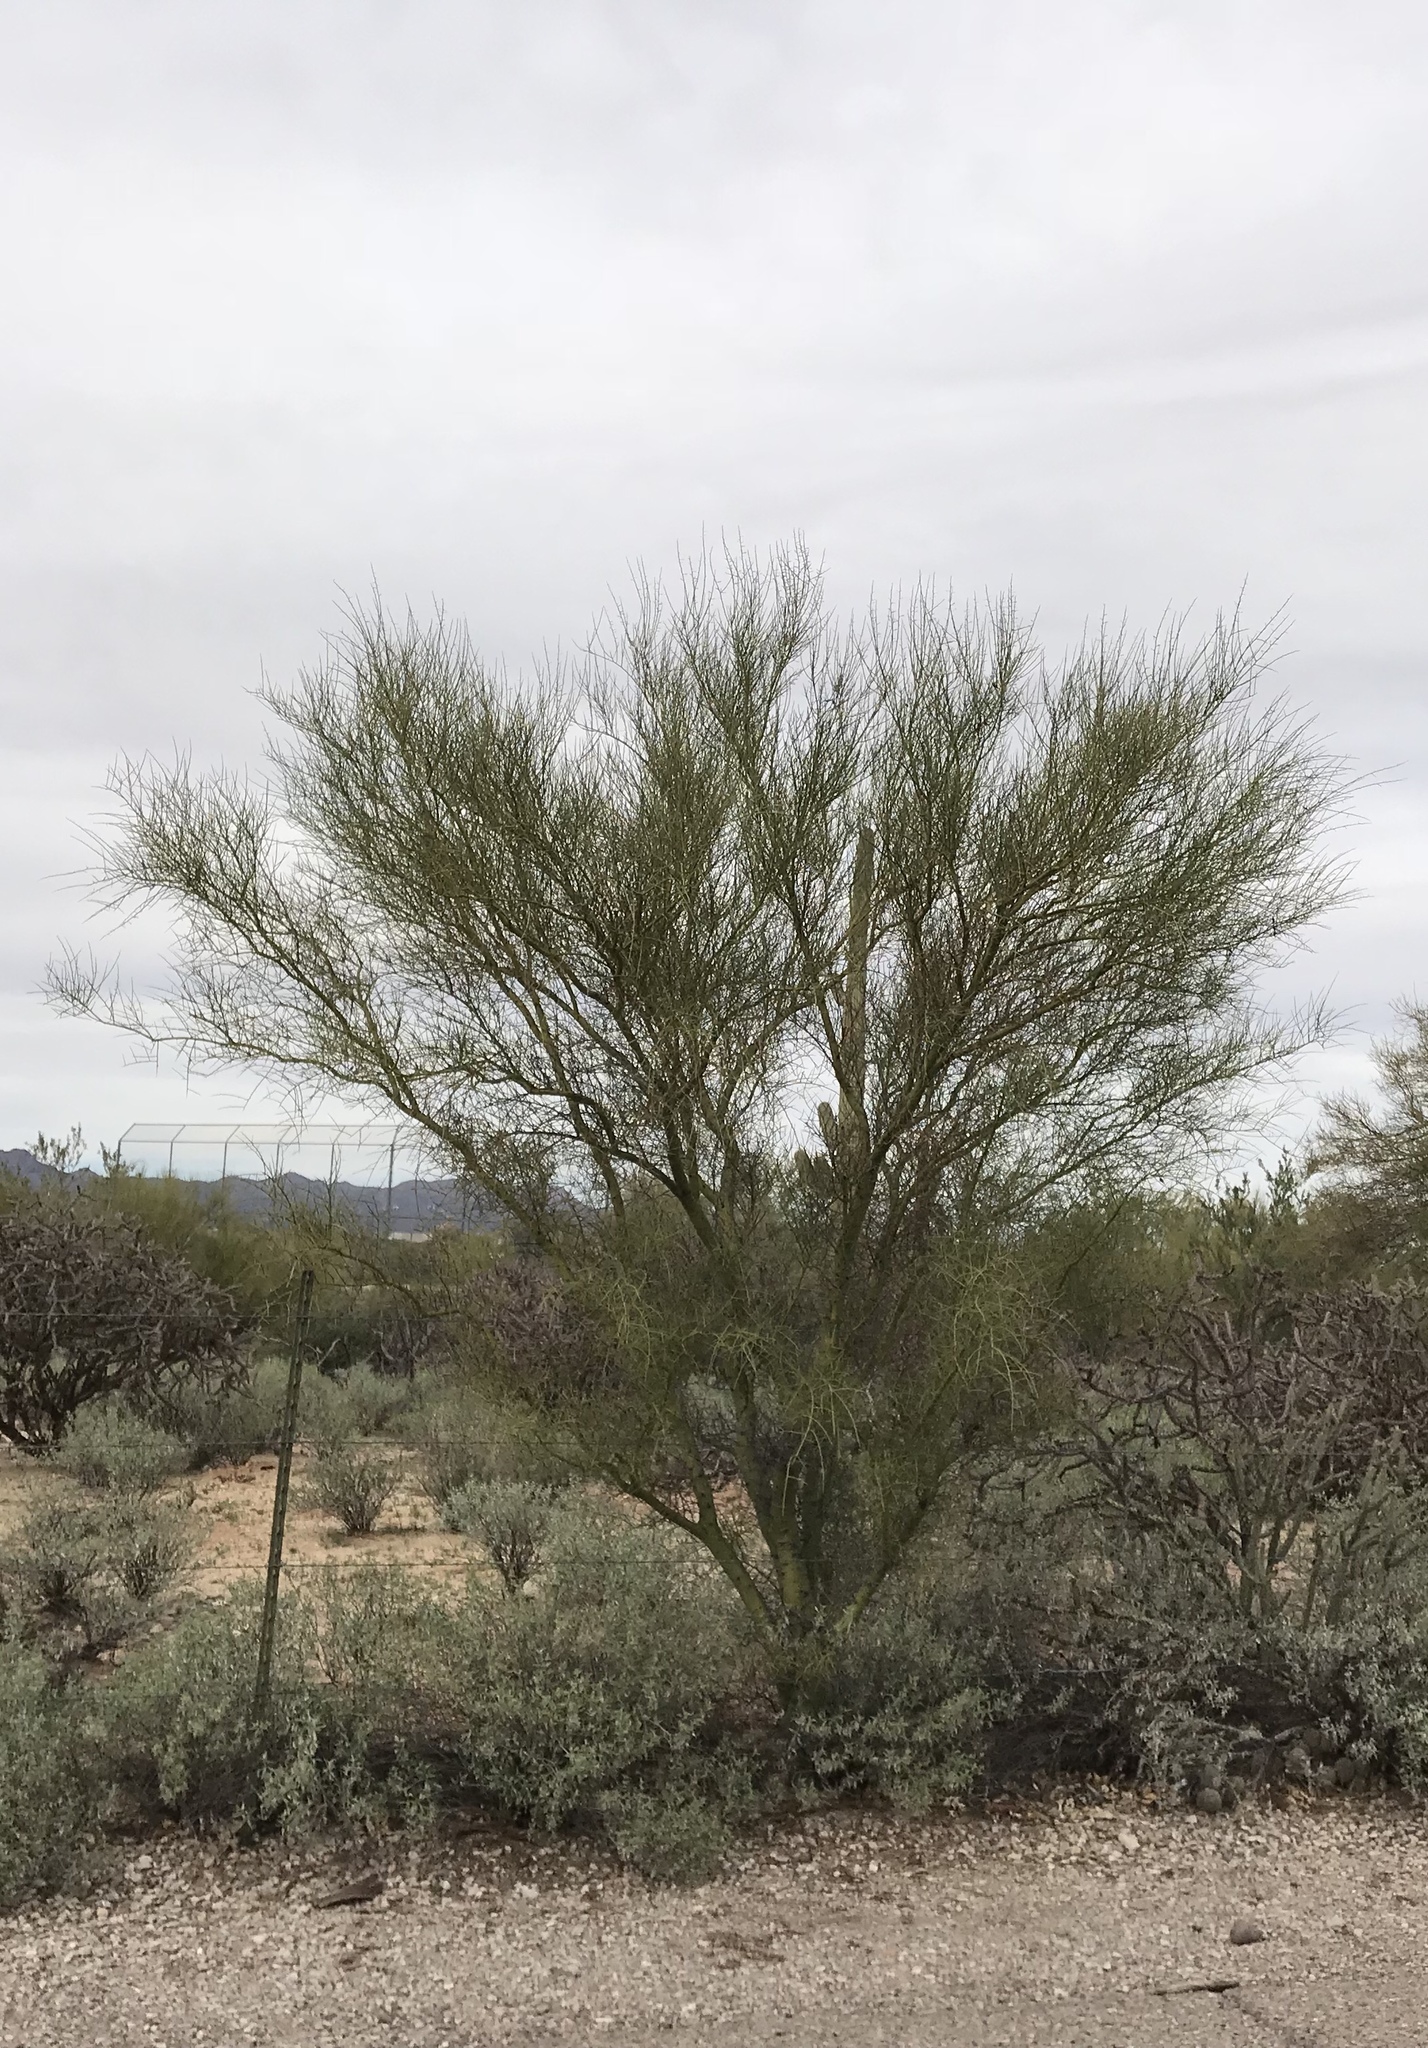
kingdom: Plantae
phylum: Tracheophyta
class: Magnoliopsida
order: Fabales
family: Fabaceae
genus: Parkinsonia
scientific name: Parkinsonia microphylla
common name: Yellow paloverde
